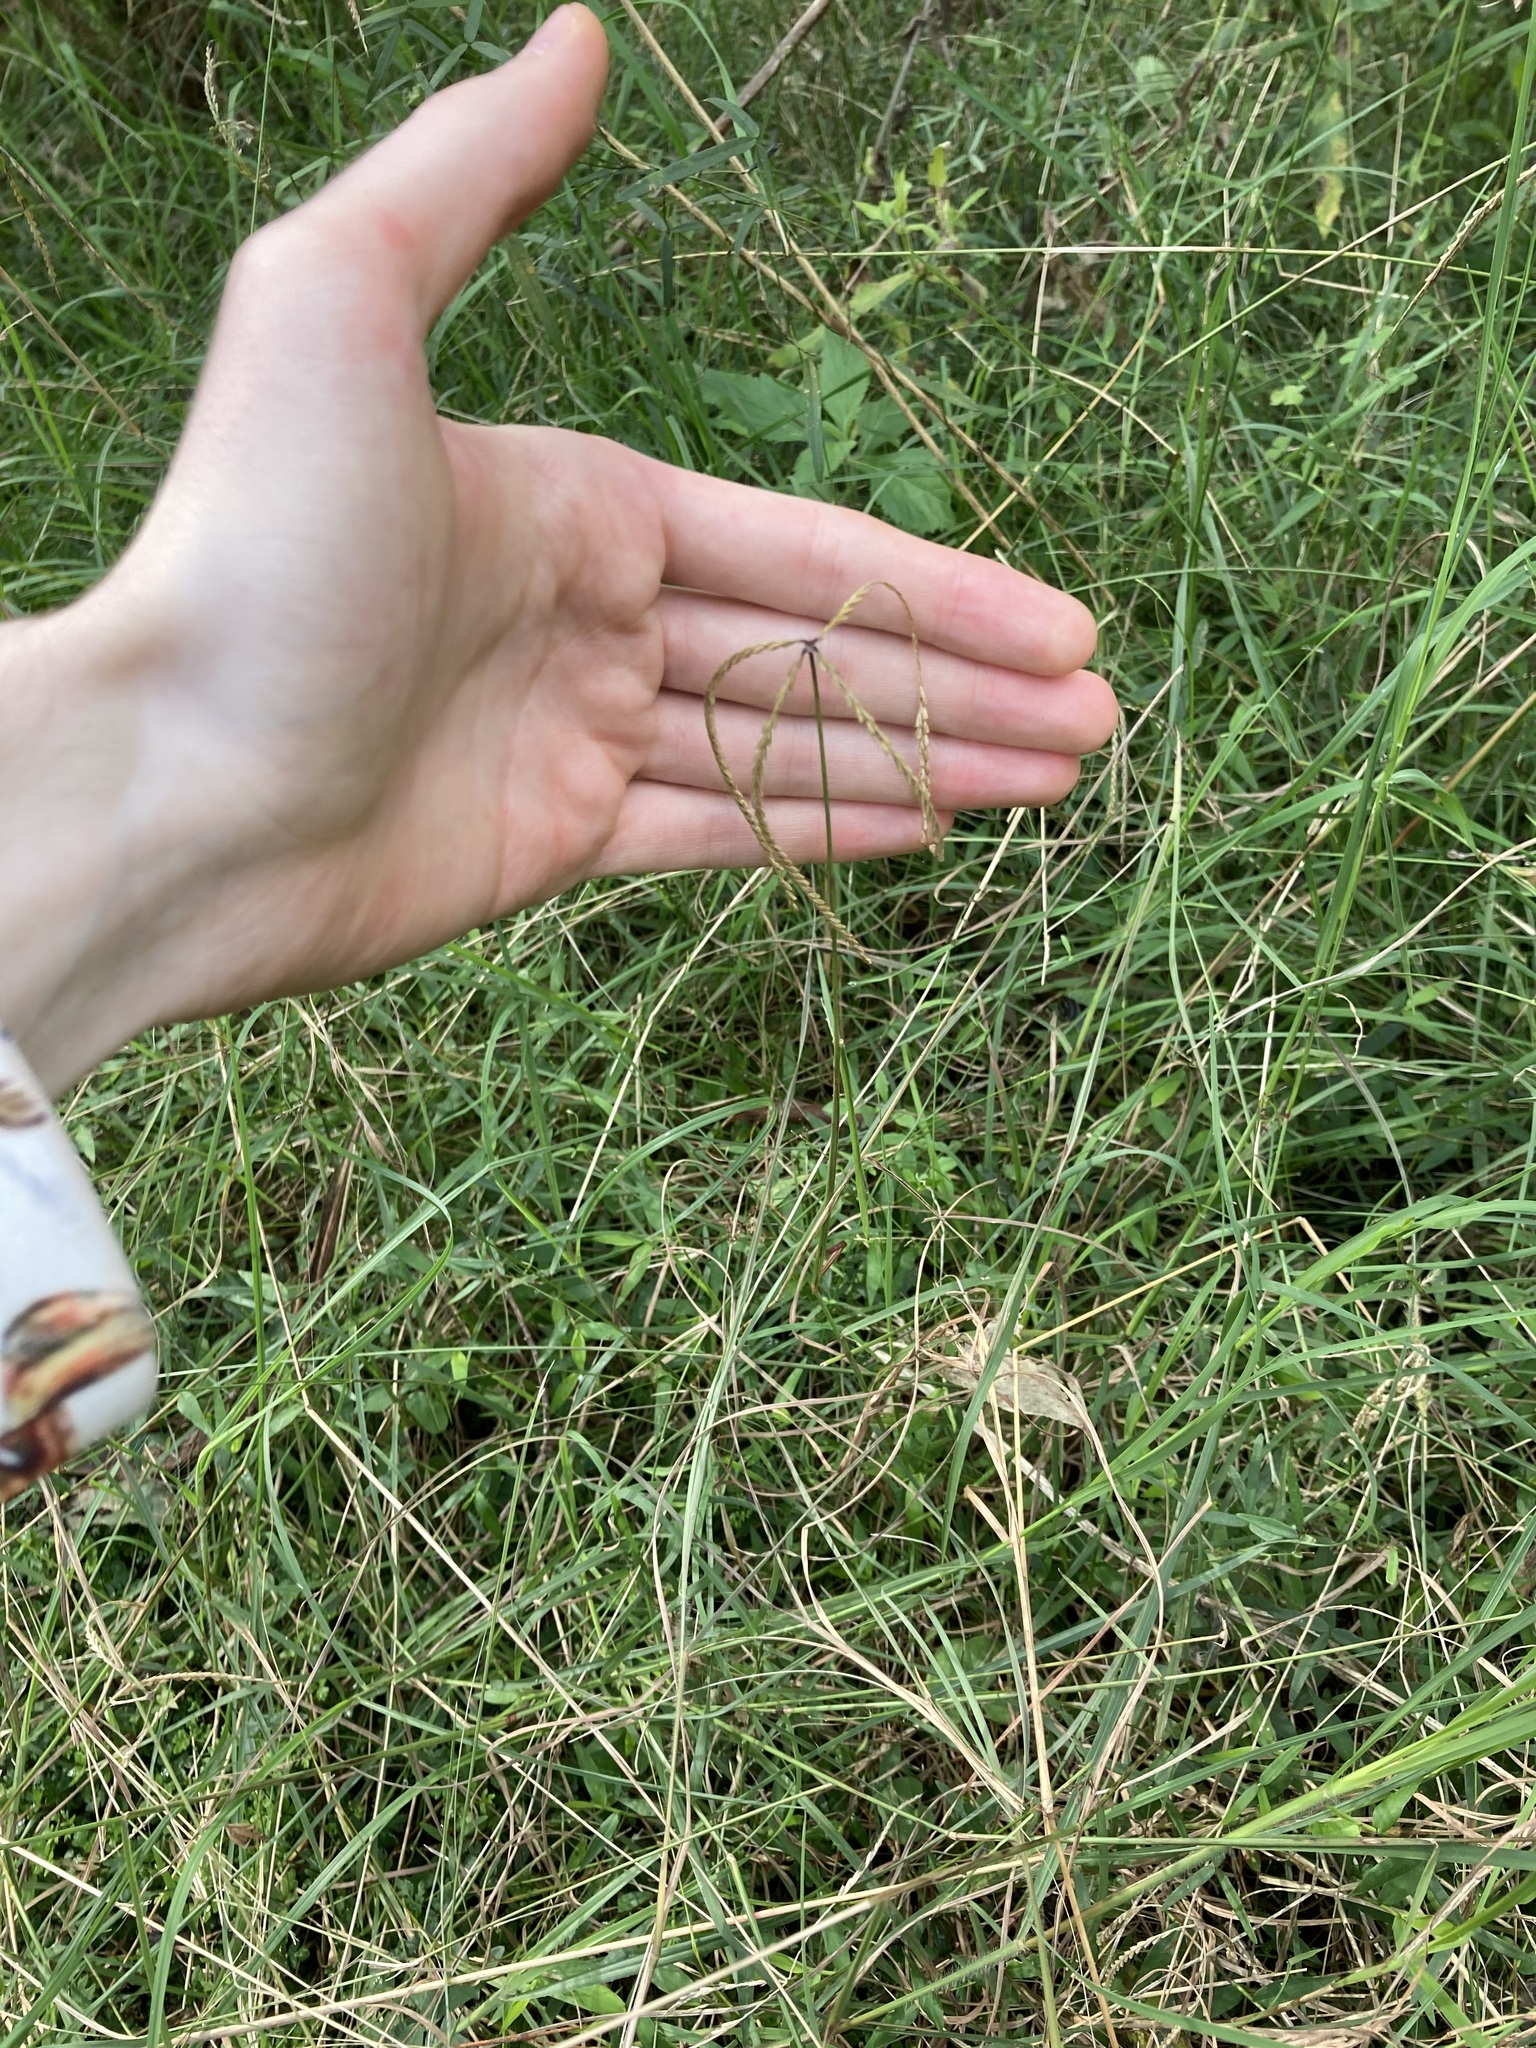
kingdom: Plantae
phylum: Tracheophyta
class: Liliopsida
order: Poales
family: Poaceae
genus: Chloris
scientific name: Chloris ventricosa
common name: Australian windmill grass
